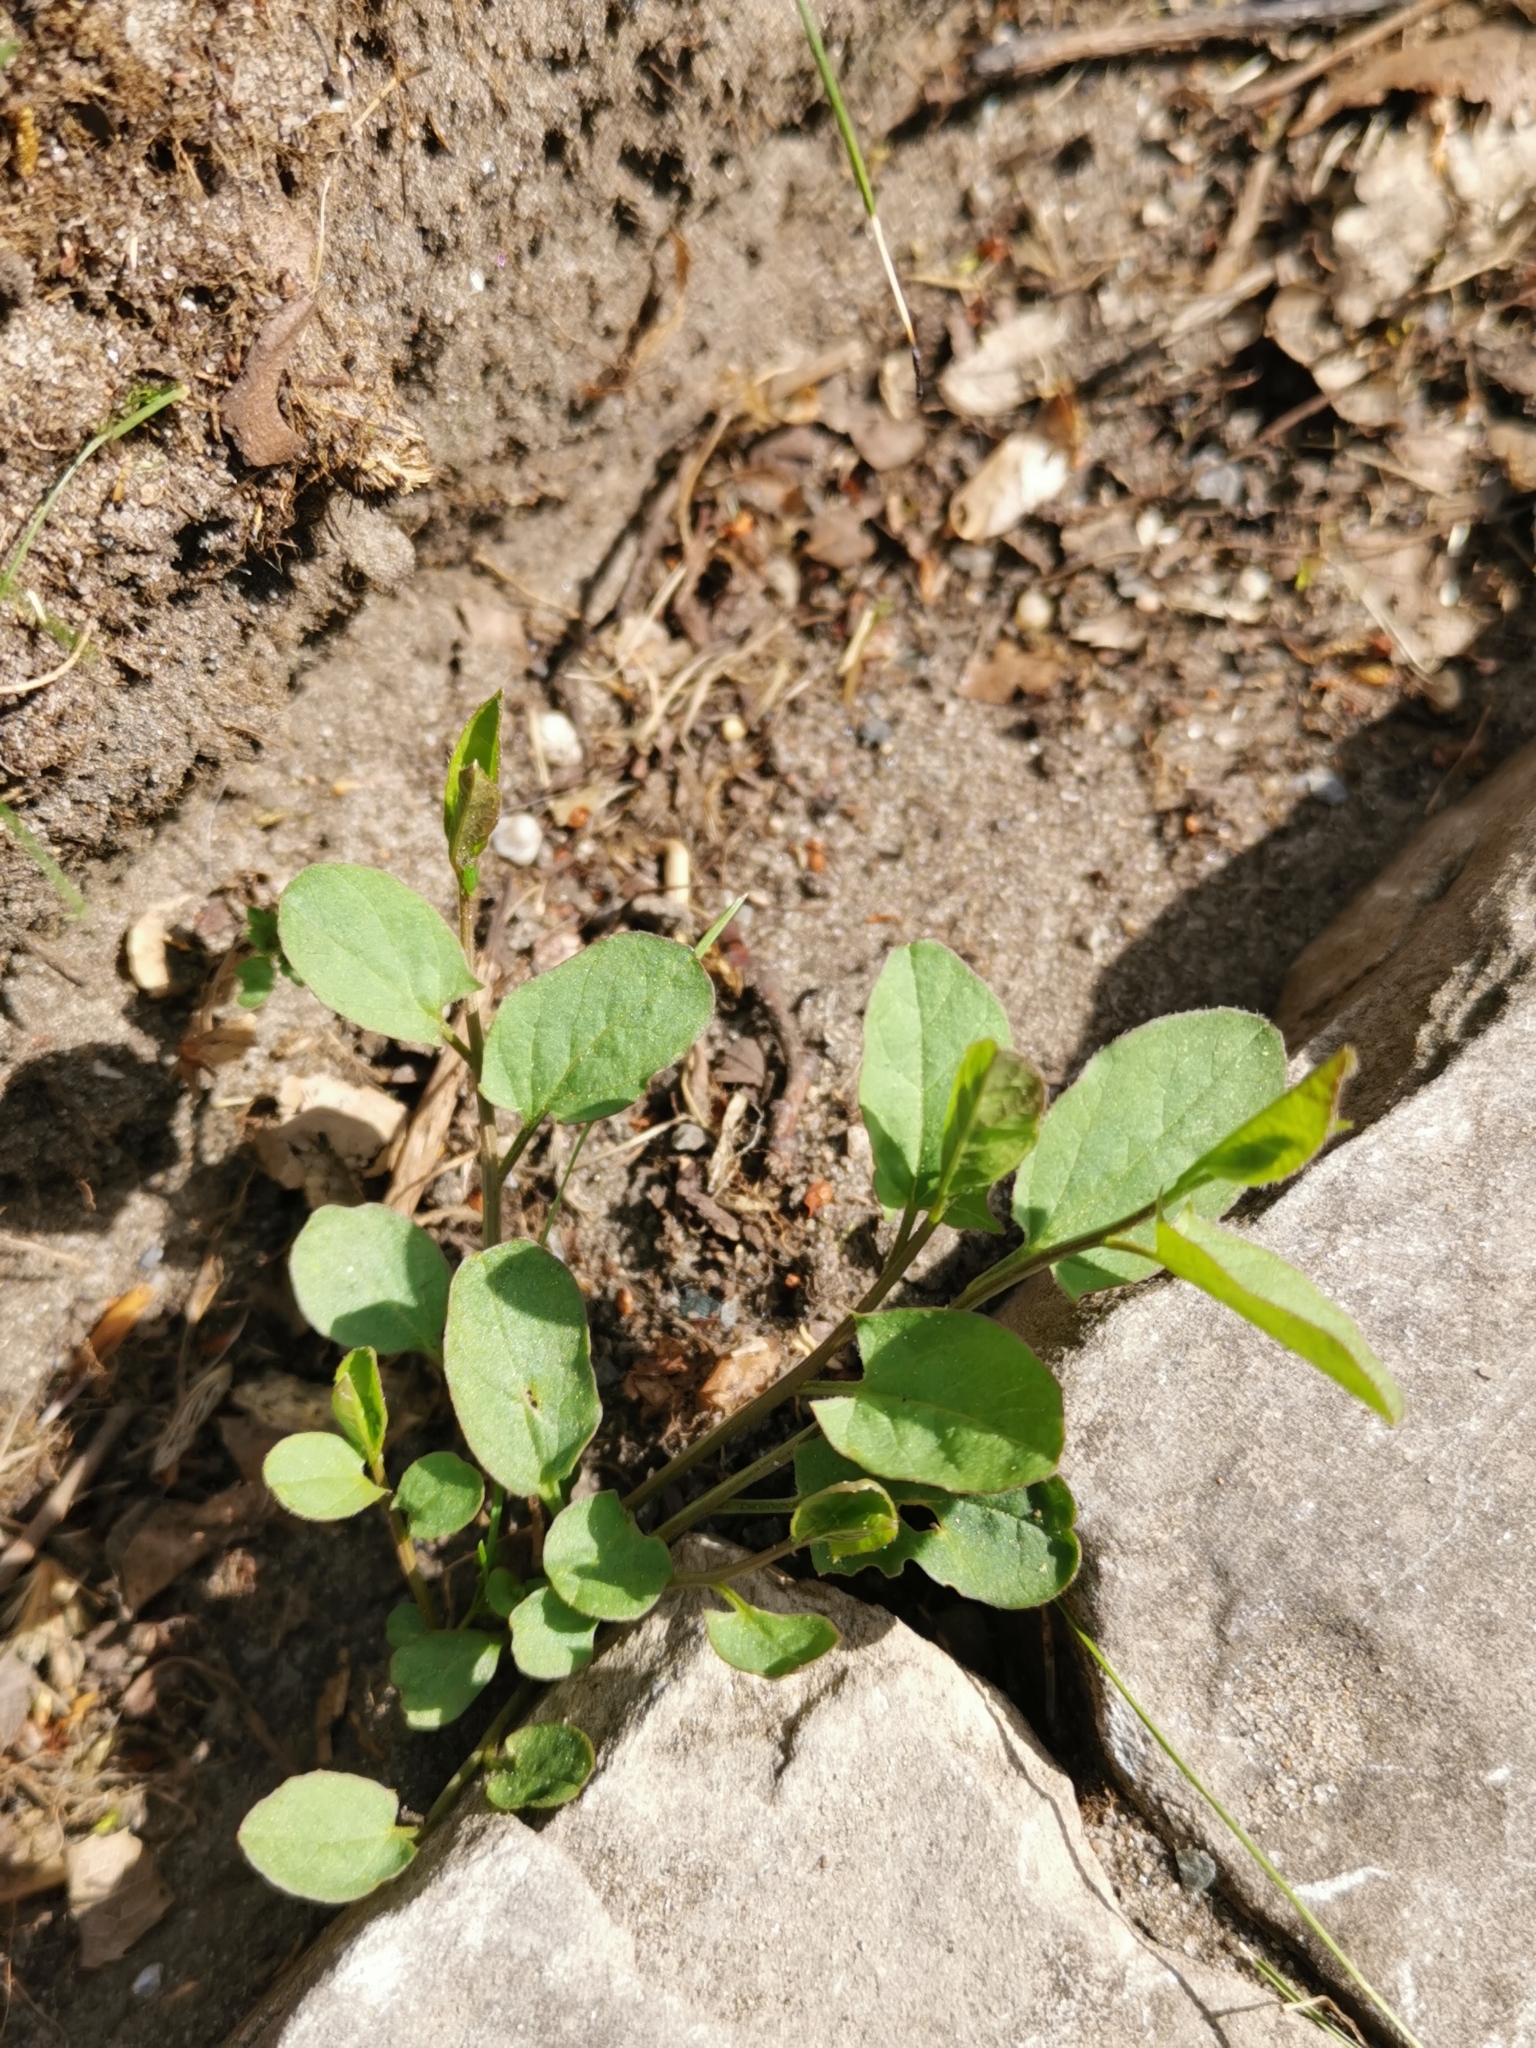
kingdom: Plantae
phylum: Tracheophyta
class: Magnoliopsida
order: Solanales
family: Convolvulaceae
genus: Convolvulus
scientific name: Convolvulus arvensis
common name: Field bindweed
